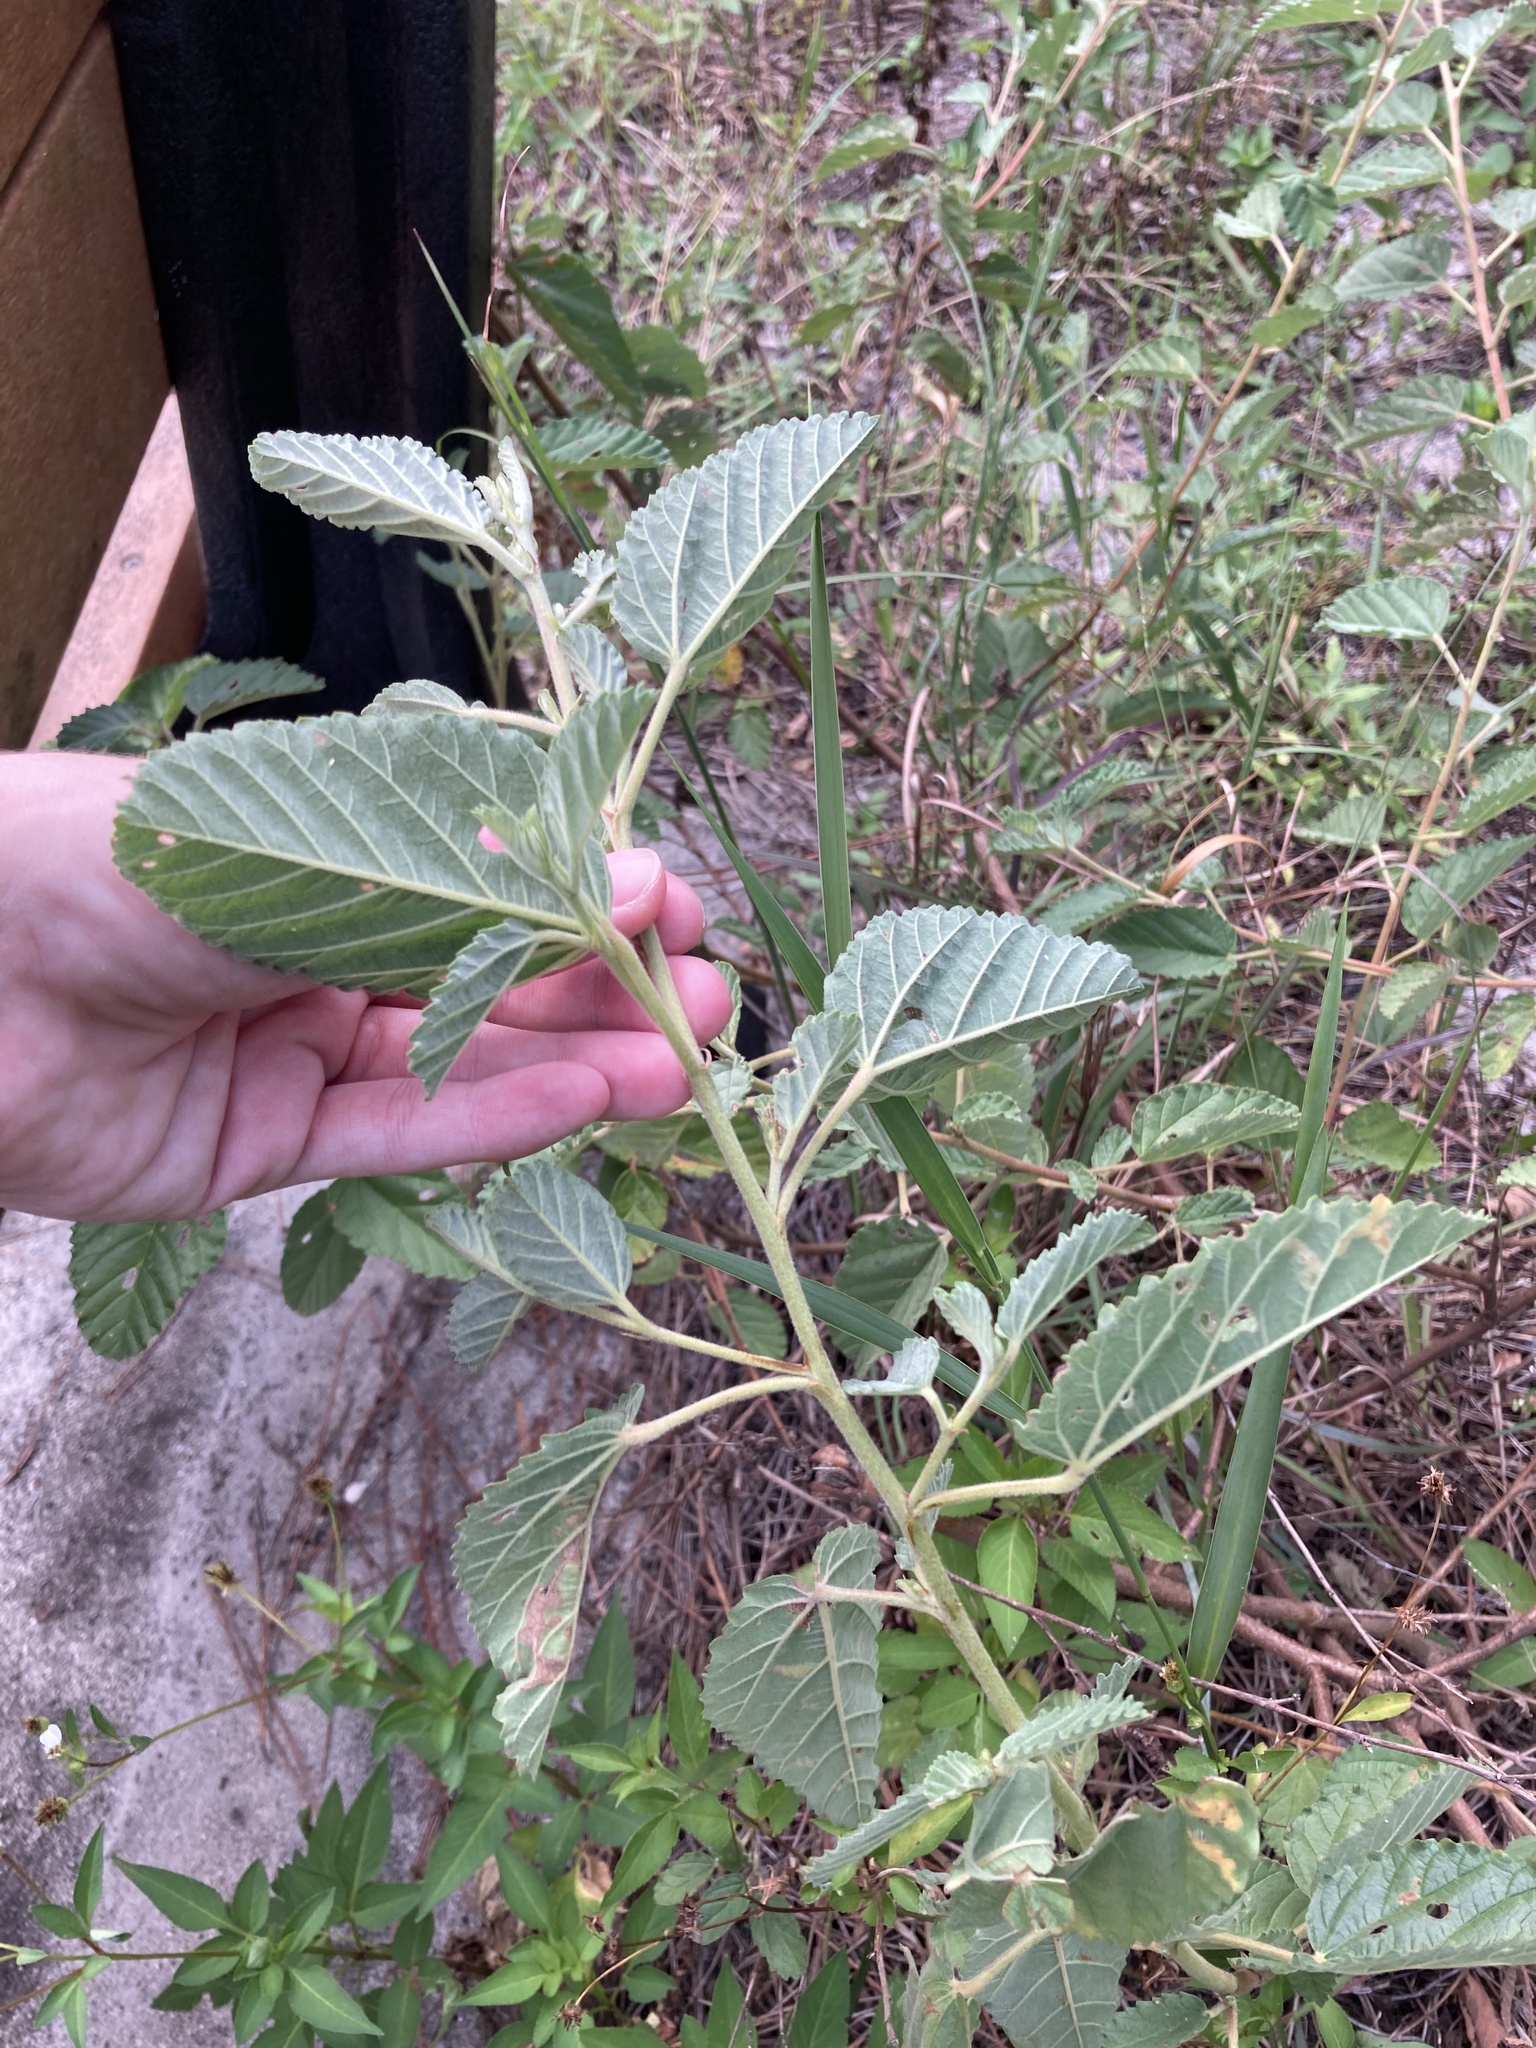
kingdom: Plantae
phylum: Tracheophyta
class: Magnoliopsida
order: Malvales
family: Malvaceae
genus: Waltheria
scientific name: Waltheria indica
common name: Leather-coat
